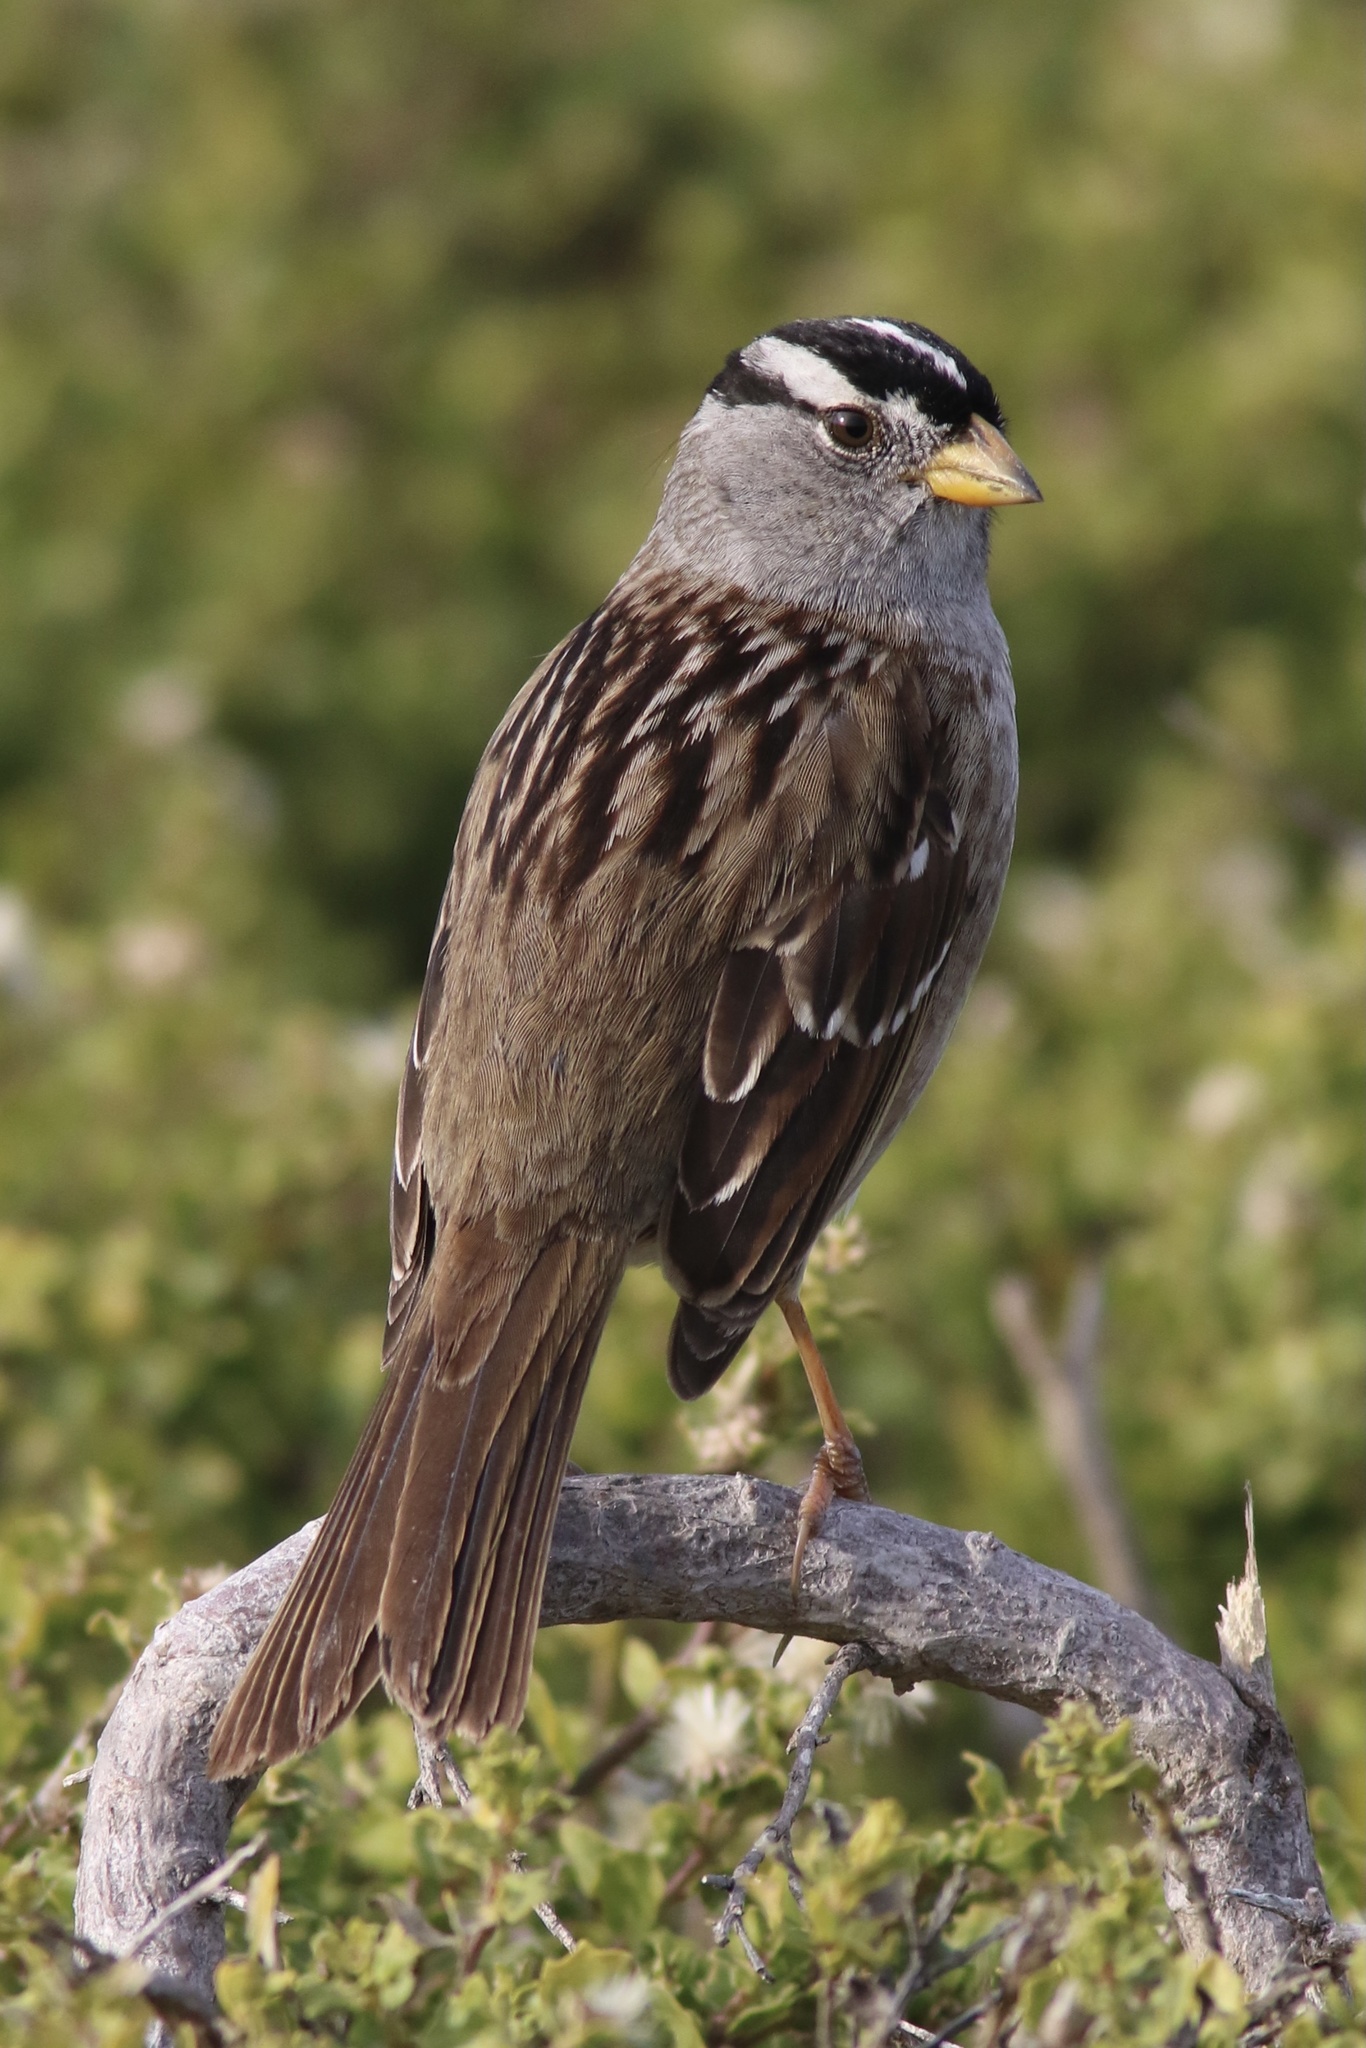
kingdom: Animalia
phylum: Chordata
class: Aves
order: Passeriformes
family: Passerellidae
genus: Zonotrichia
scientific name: Zonotrichia leucophrys
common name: White-crowned sparrow
